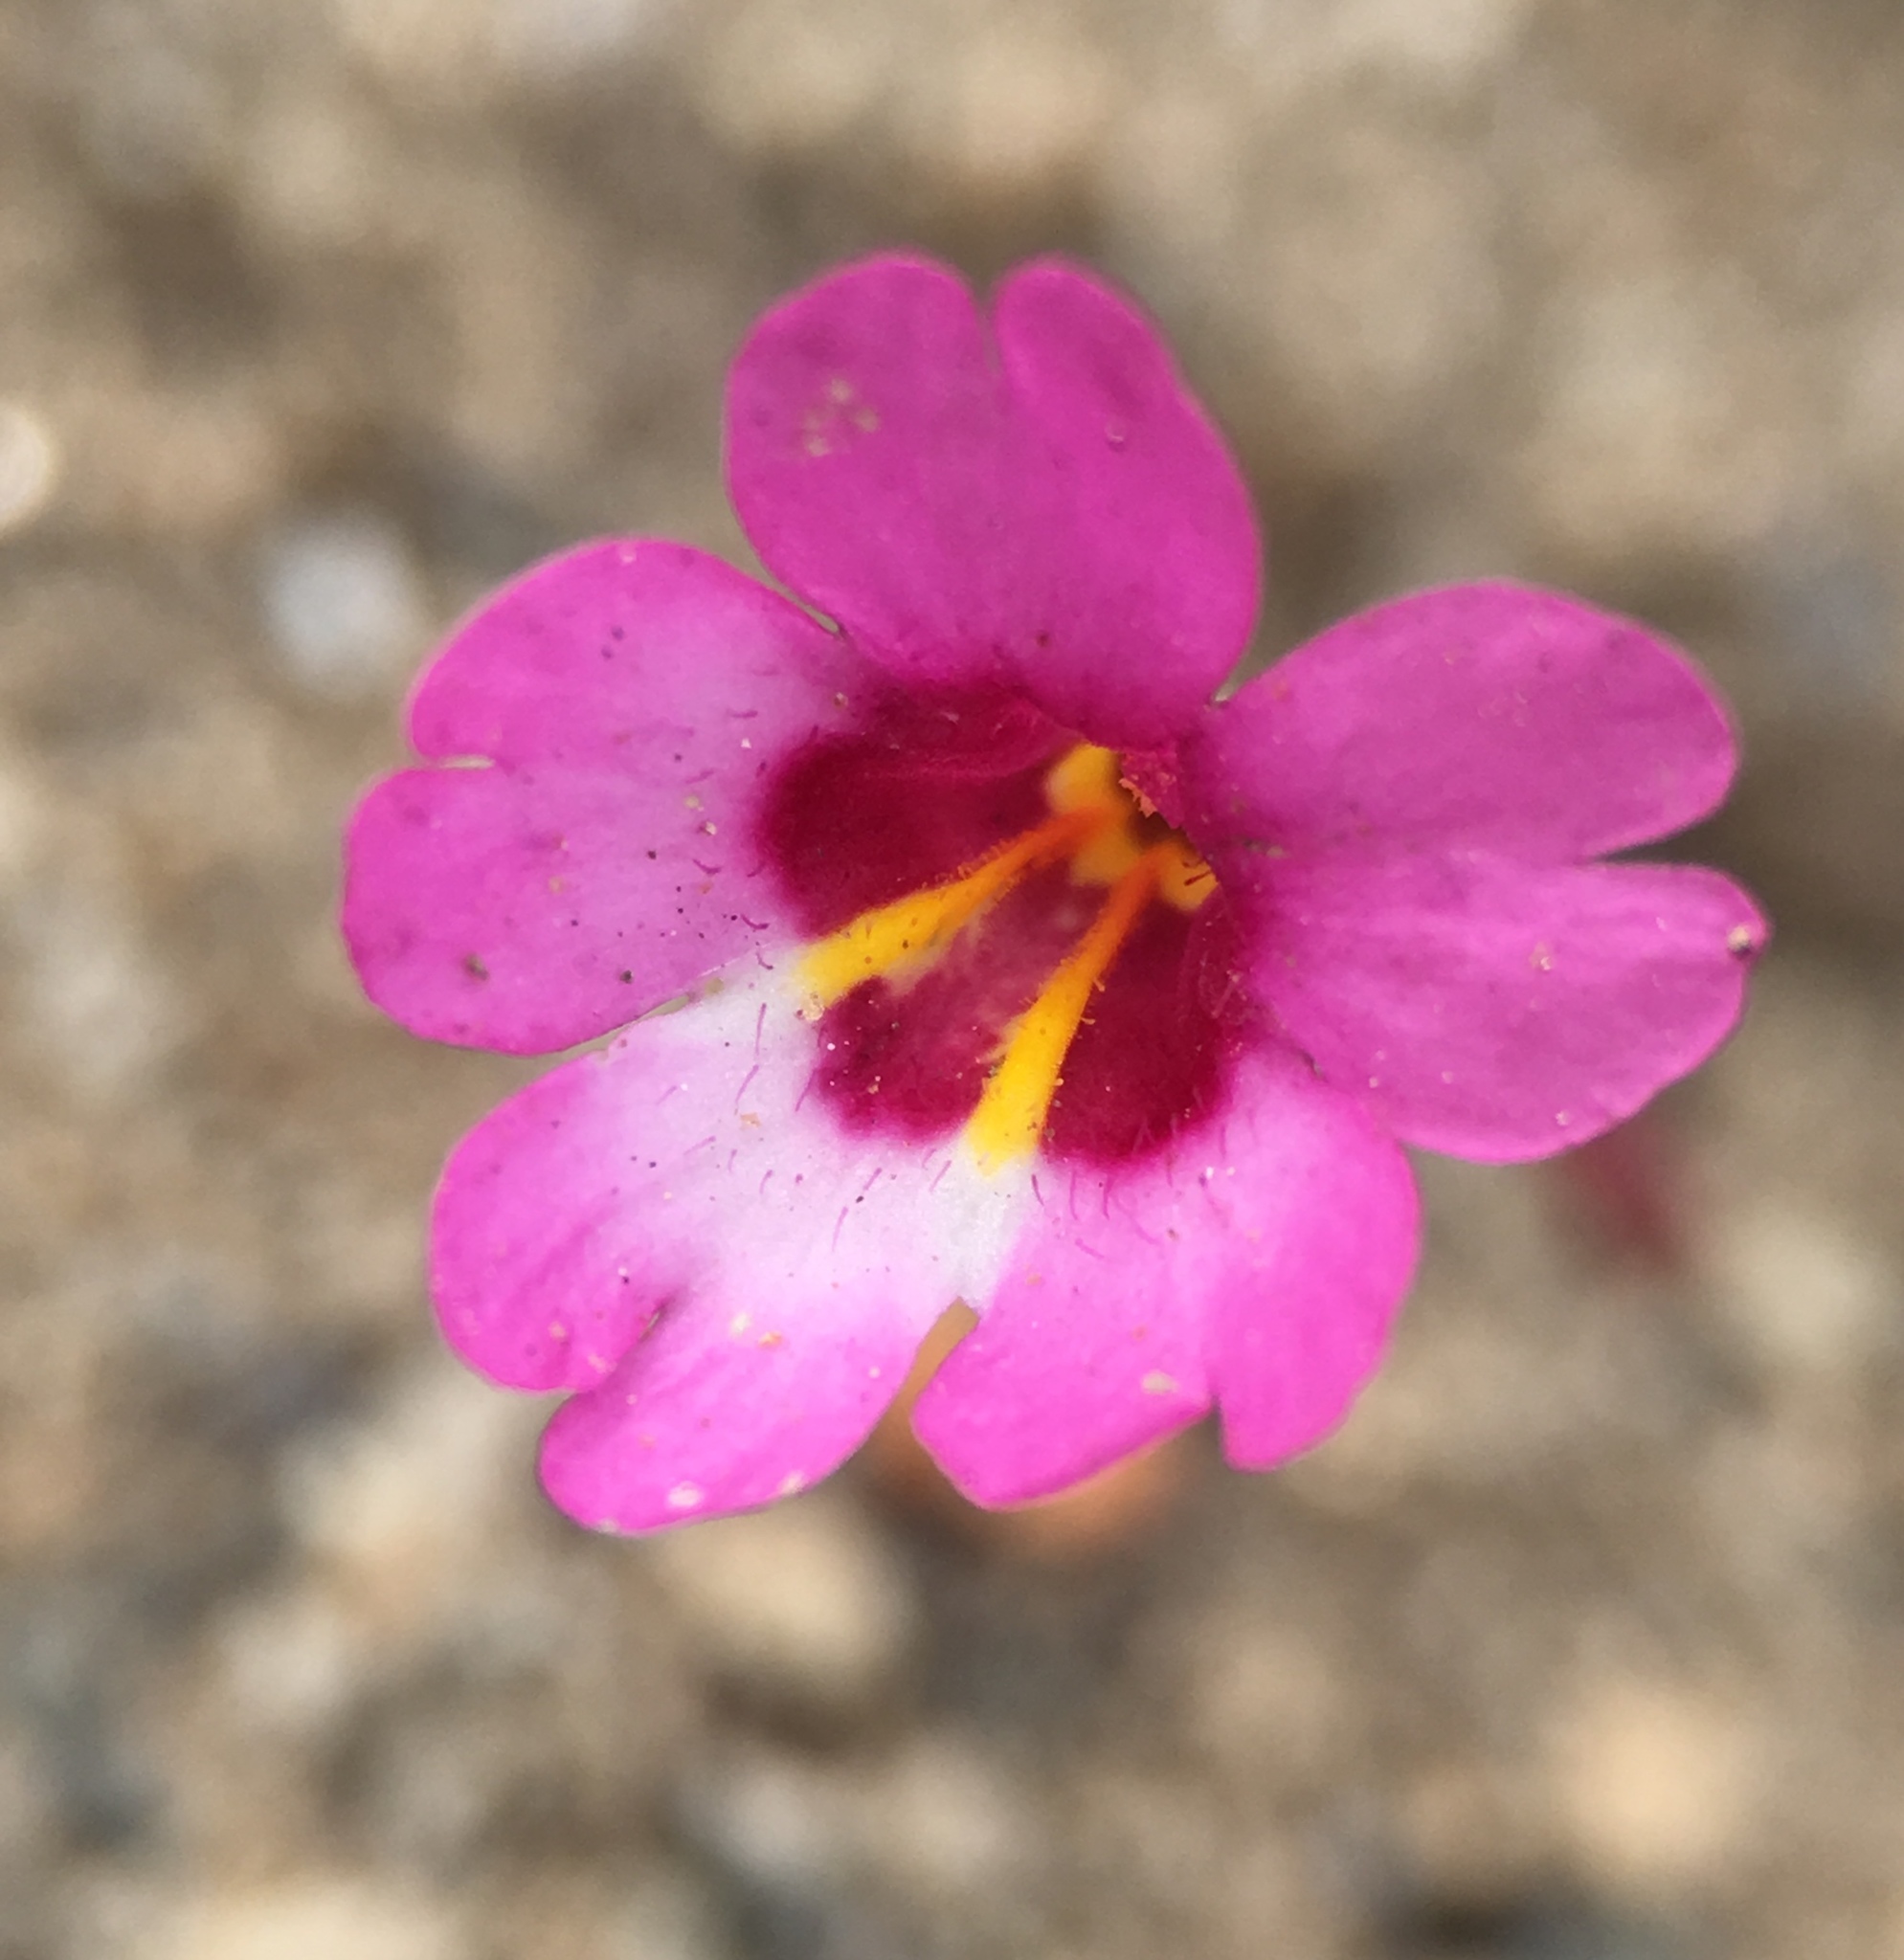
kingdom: Plantae
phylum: Tracheophyta
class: Magnoliopsida
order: Lamiales
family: Phrymaceae
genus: Erythranthe
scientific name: Erythranthe diffusa
